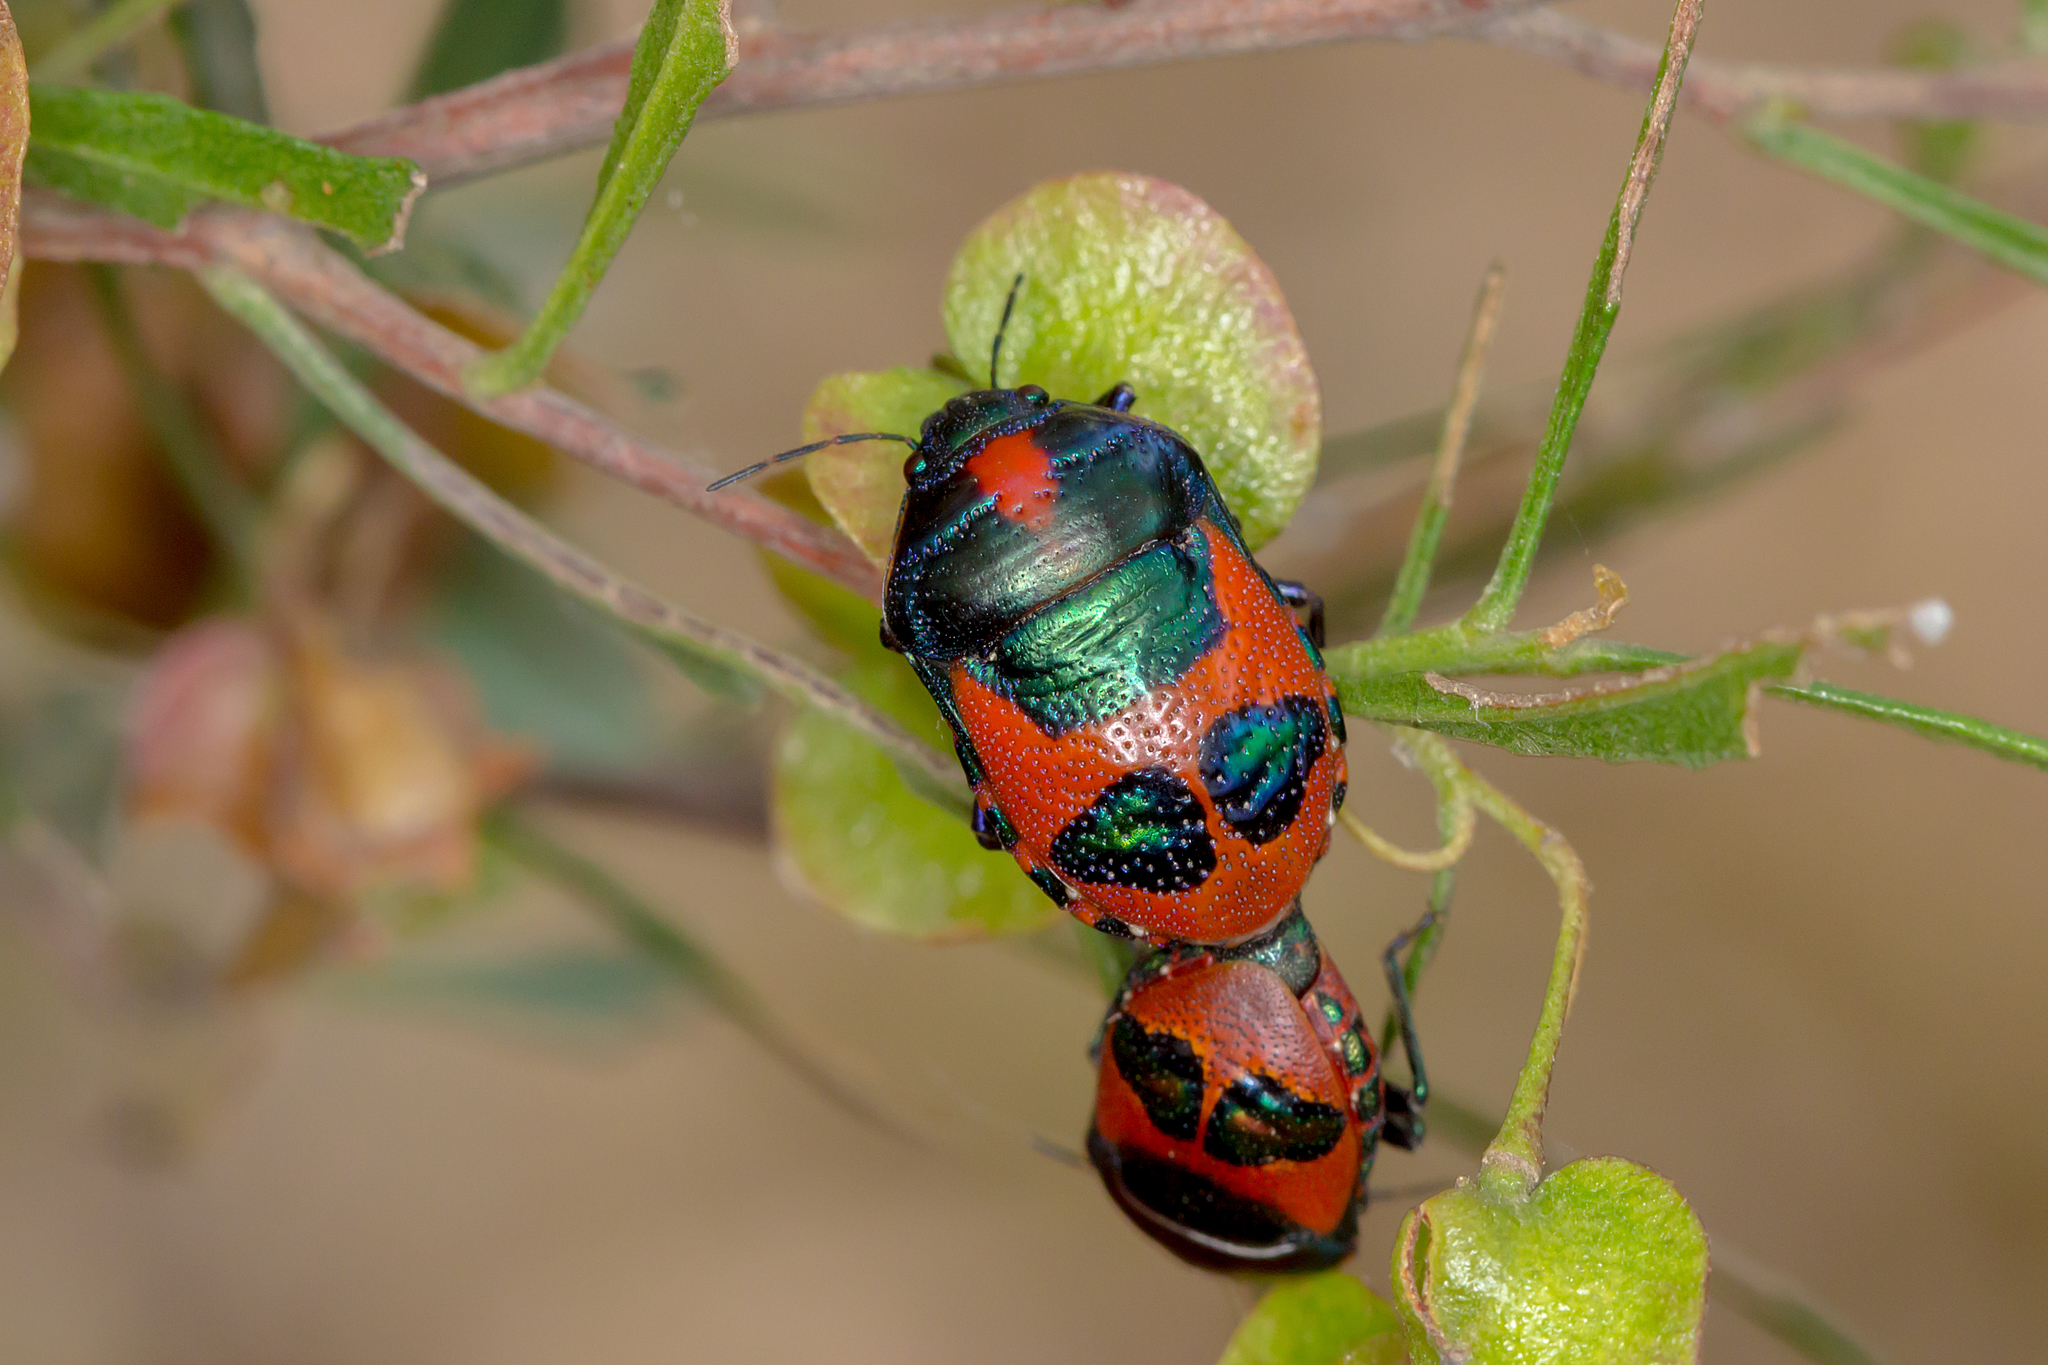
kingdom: Animalia
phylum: Arthropoda
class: Insecta
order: Hemiptera
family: Scutelleridae
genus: Choerocoris
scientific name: Choerocoris paganus
